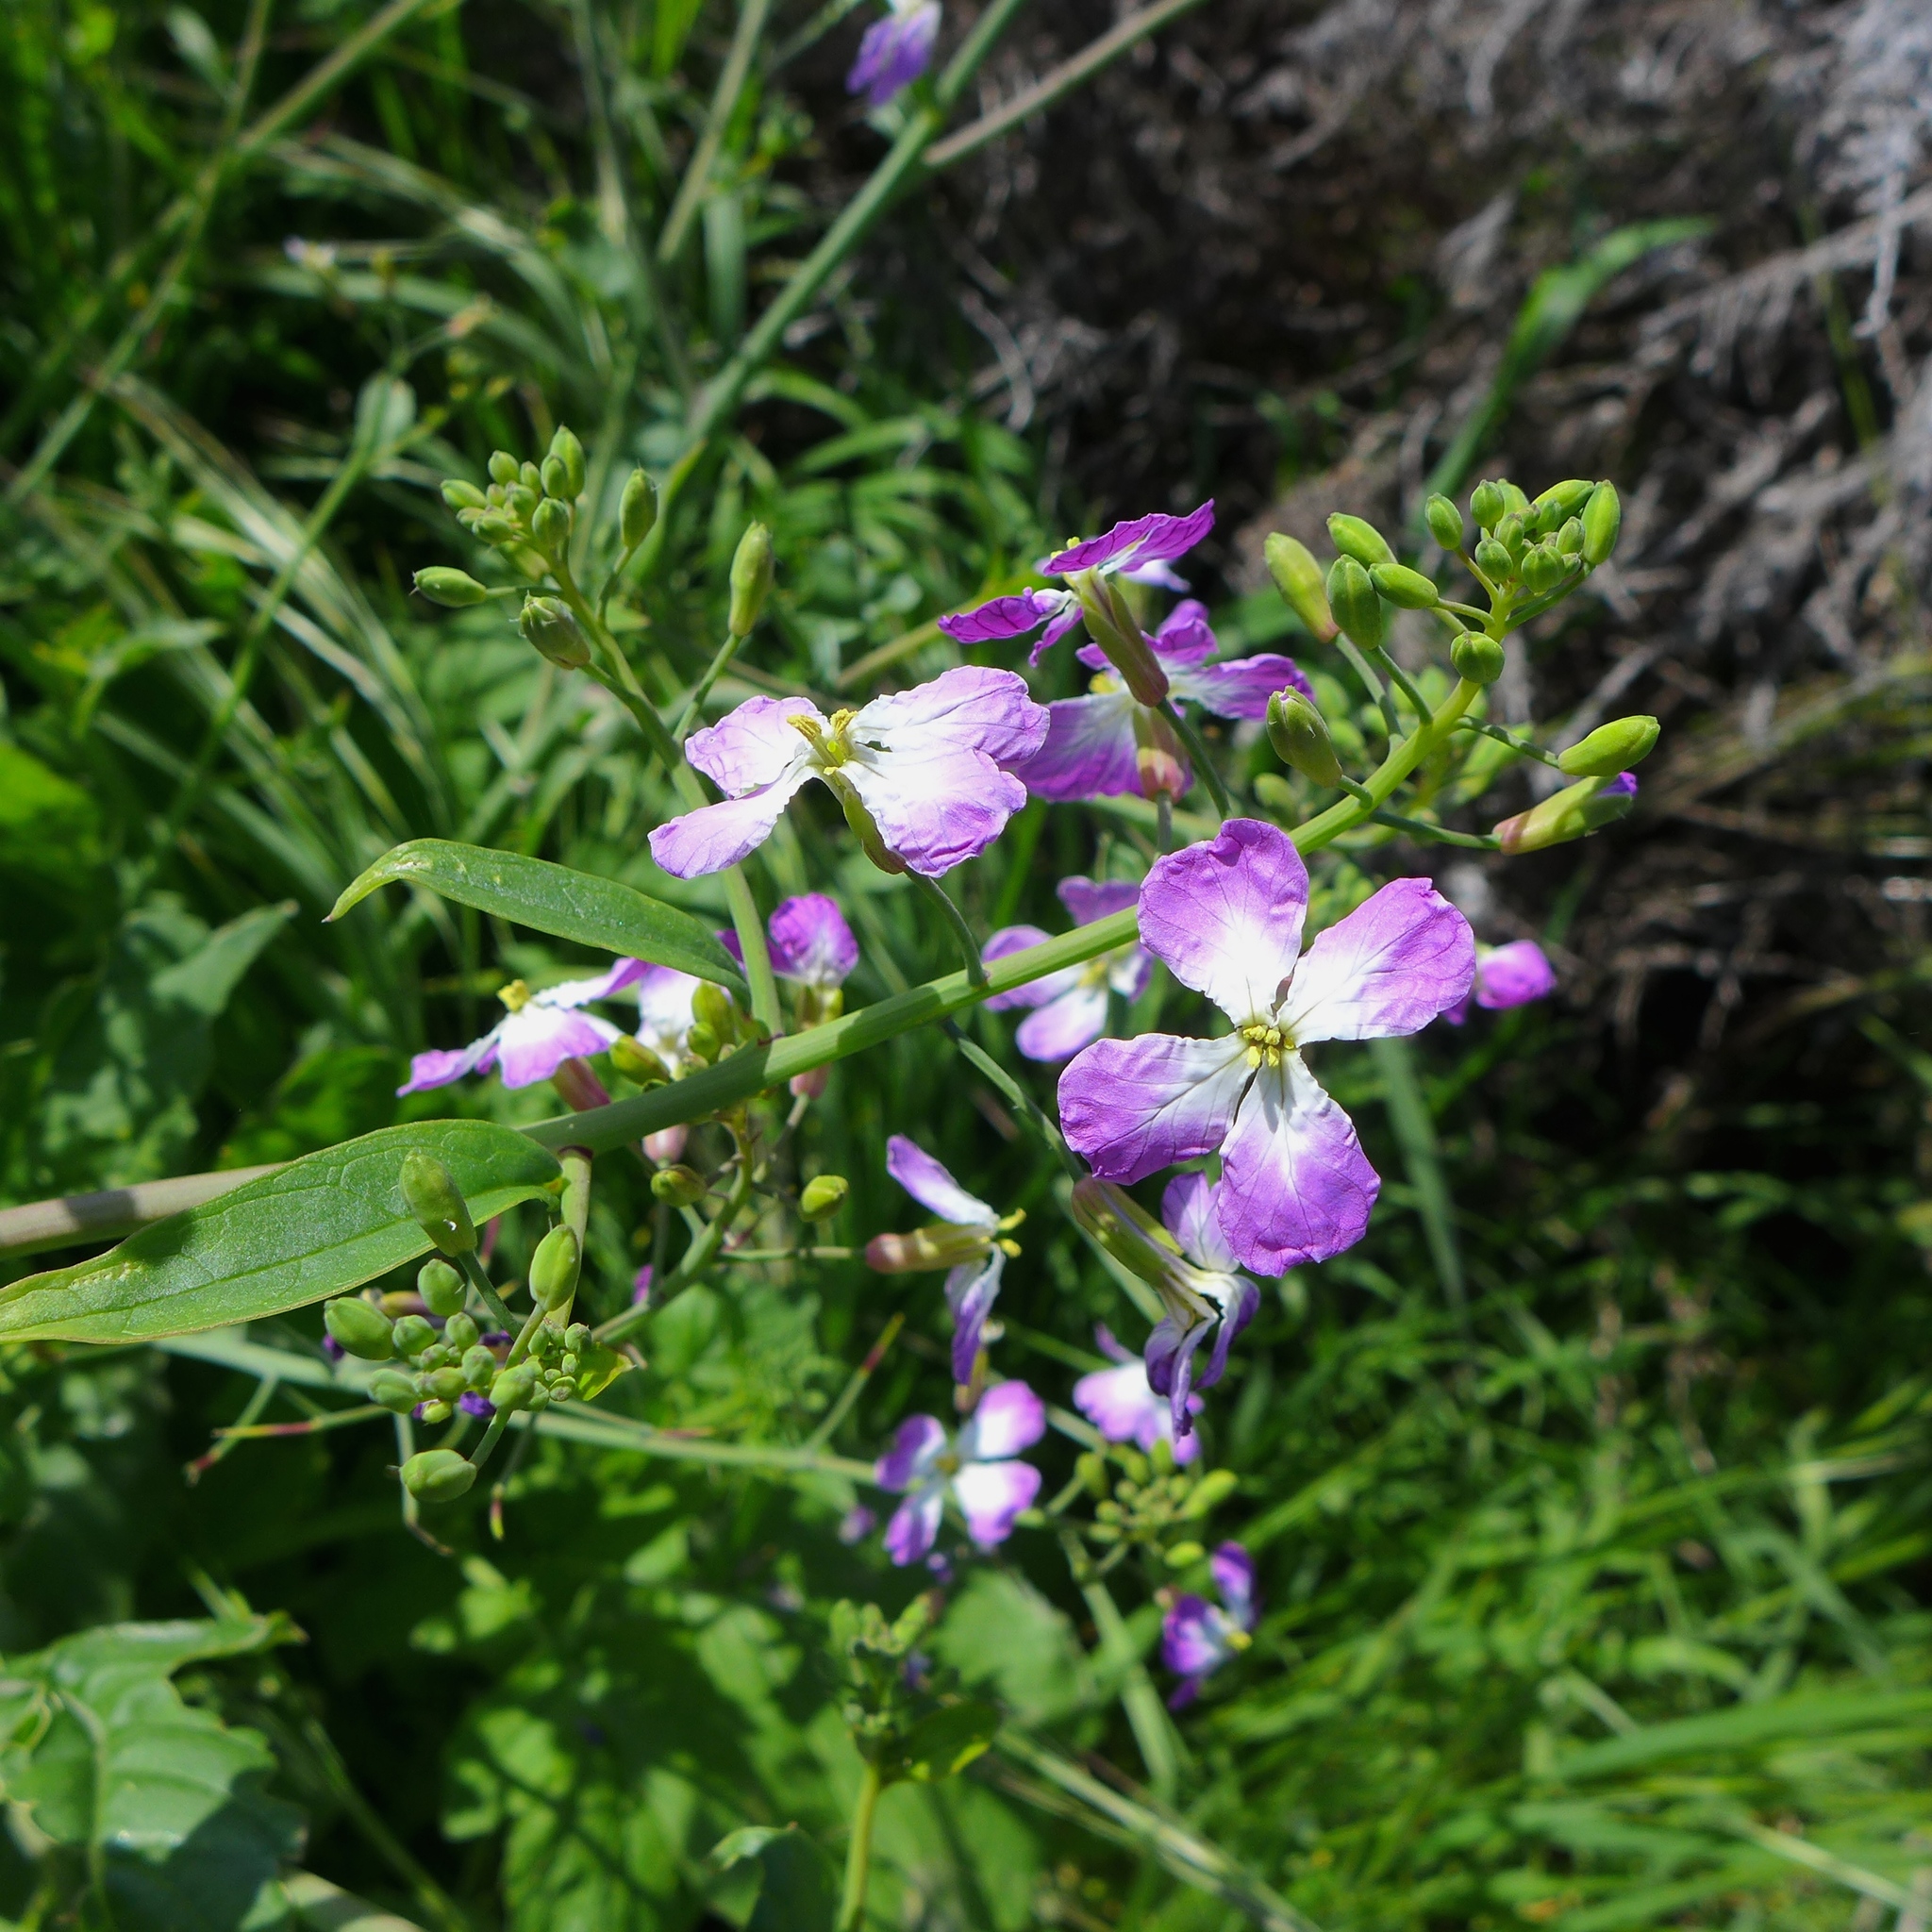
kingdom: Plantae
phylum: Tracheophyta
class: Magnoliopsida
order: Brassicales
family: Brassicaceae
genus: Raphanus
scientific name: Raphanus sativus
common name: Cultivated radish
